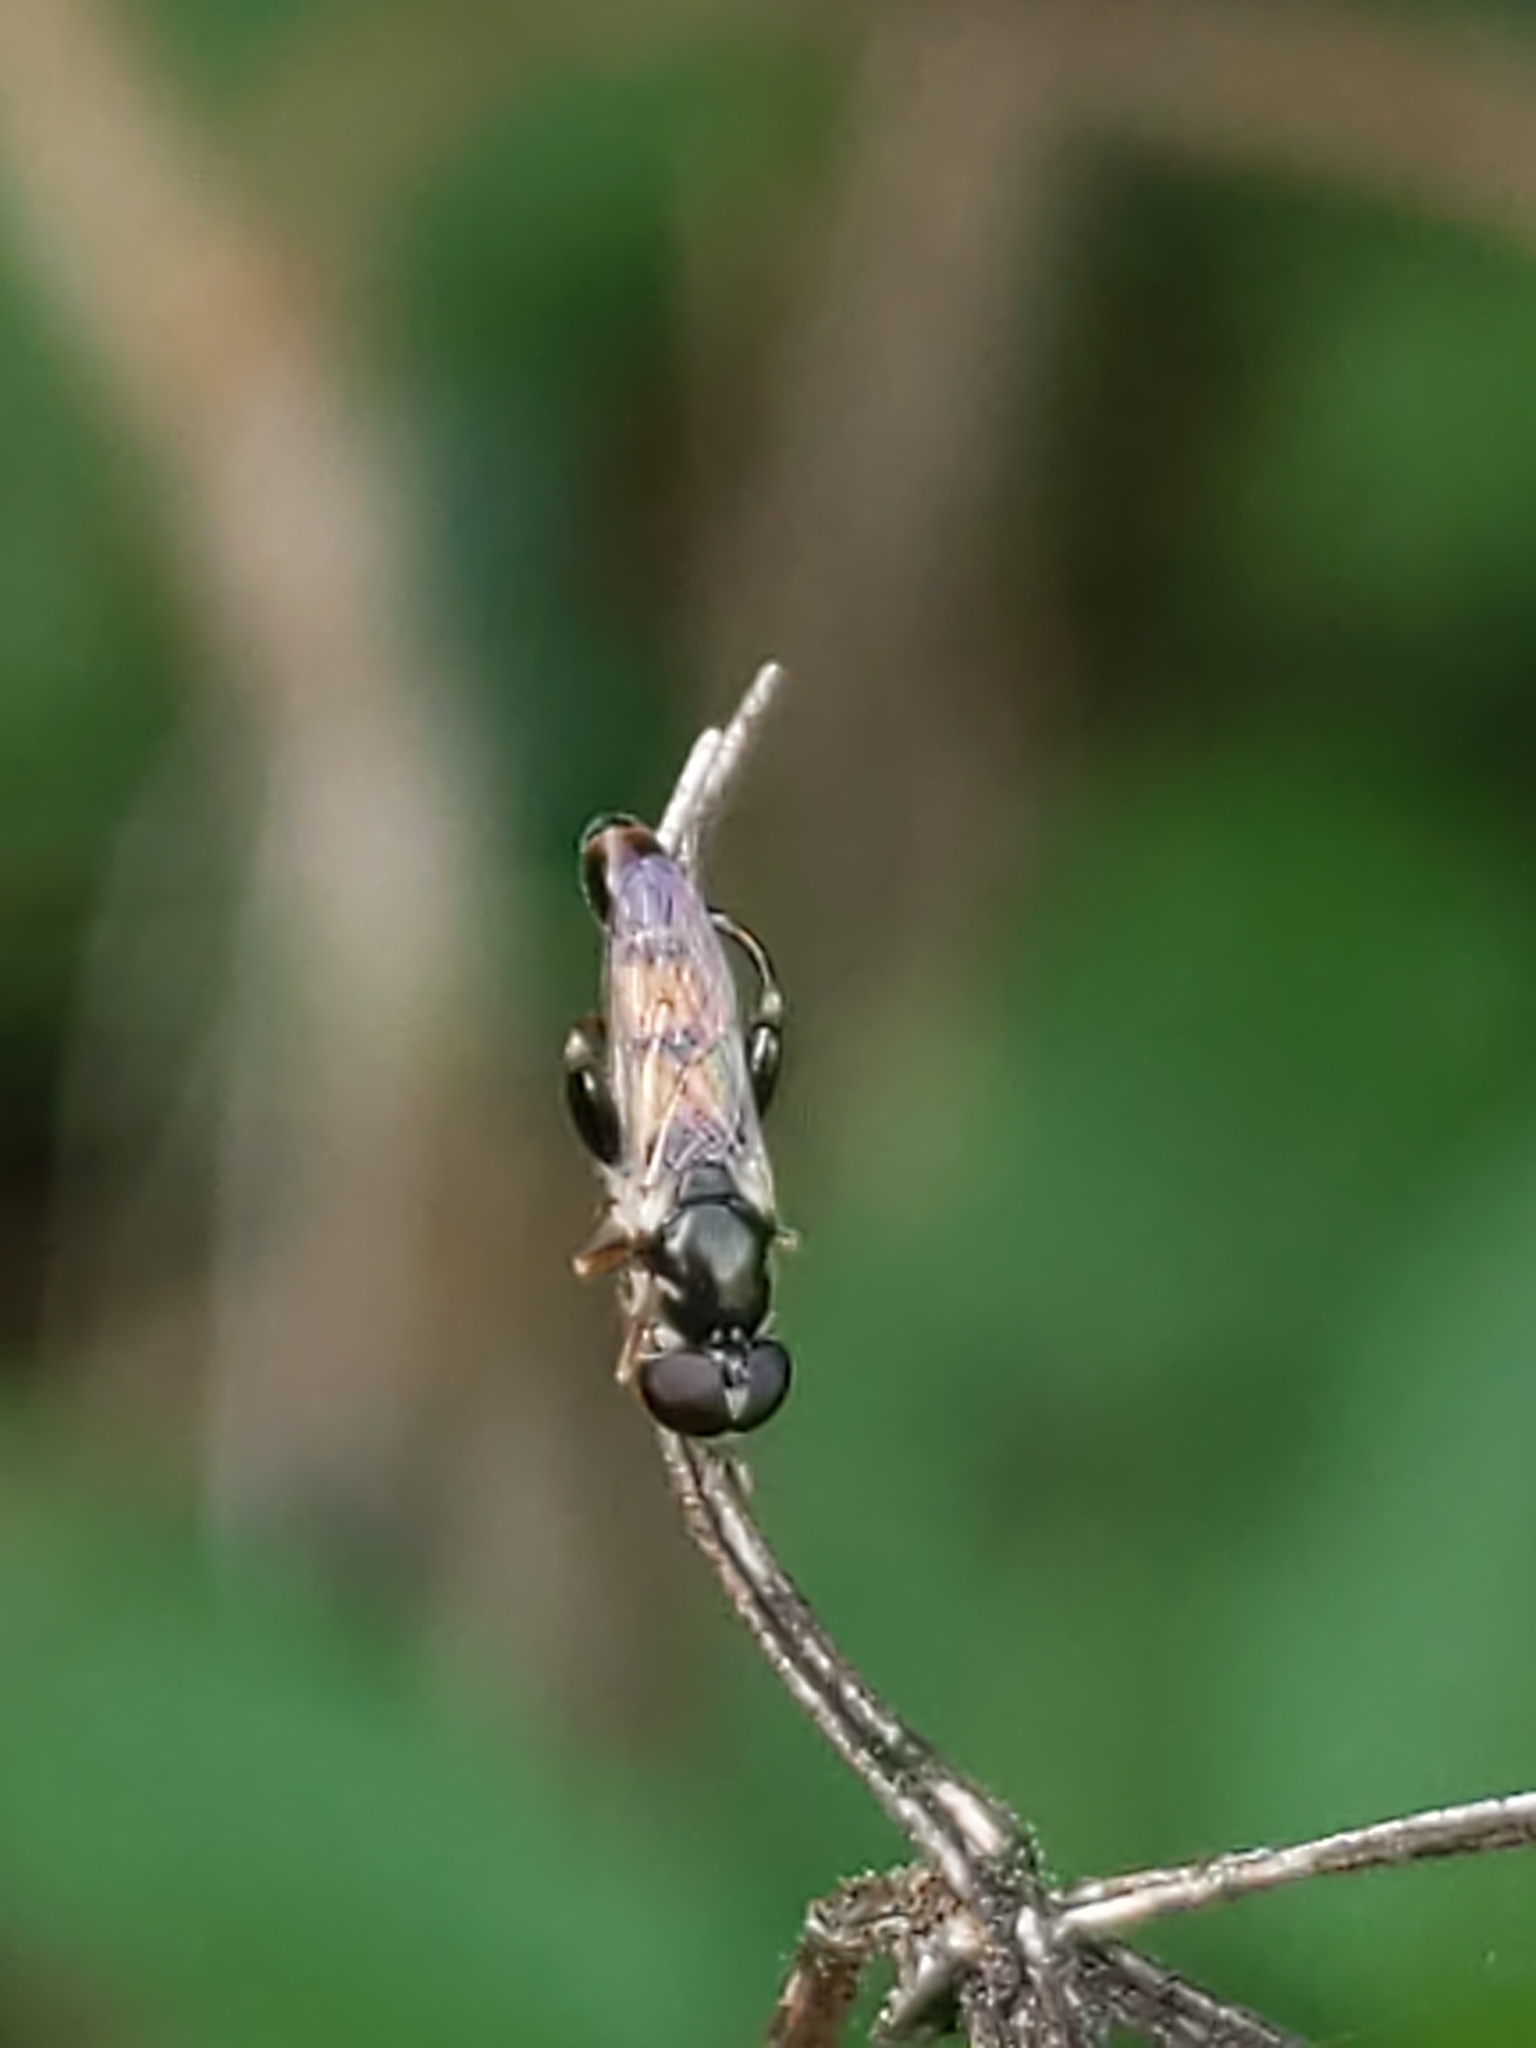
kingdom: Animalia
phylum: Arthropoda
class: Insecta
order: Diptera
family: Syrphidae
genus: Syritta
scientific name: Syritta pipiens
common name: Hover fly
